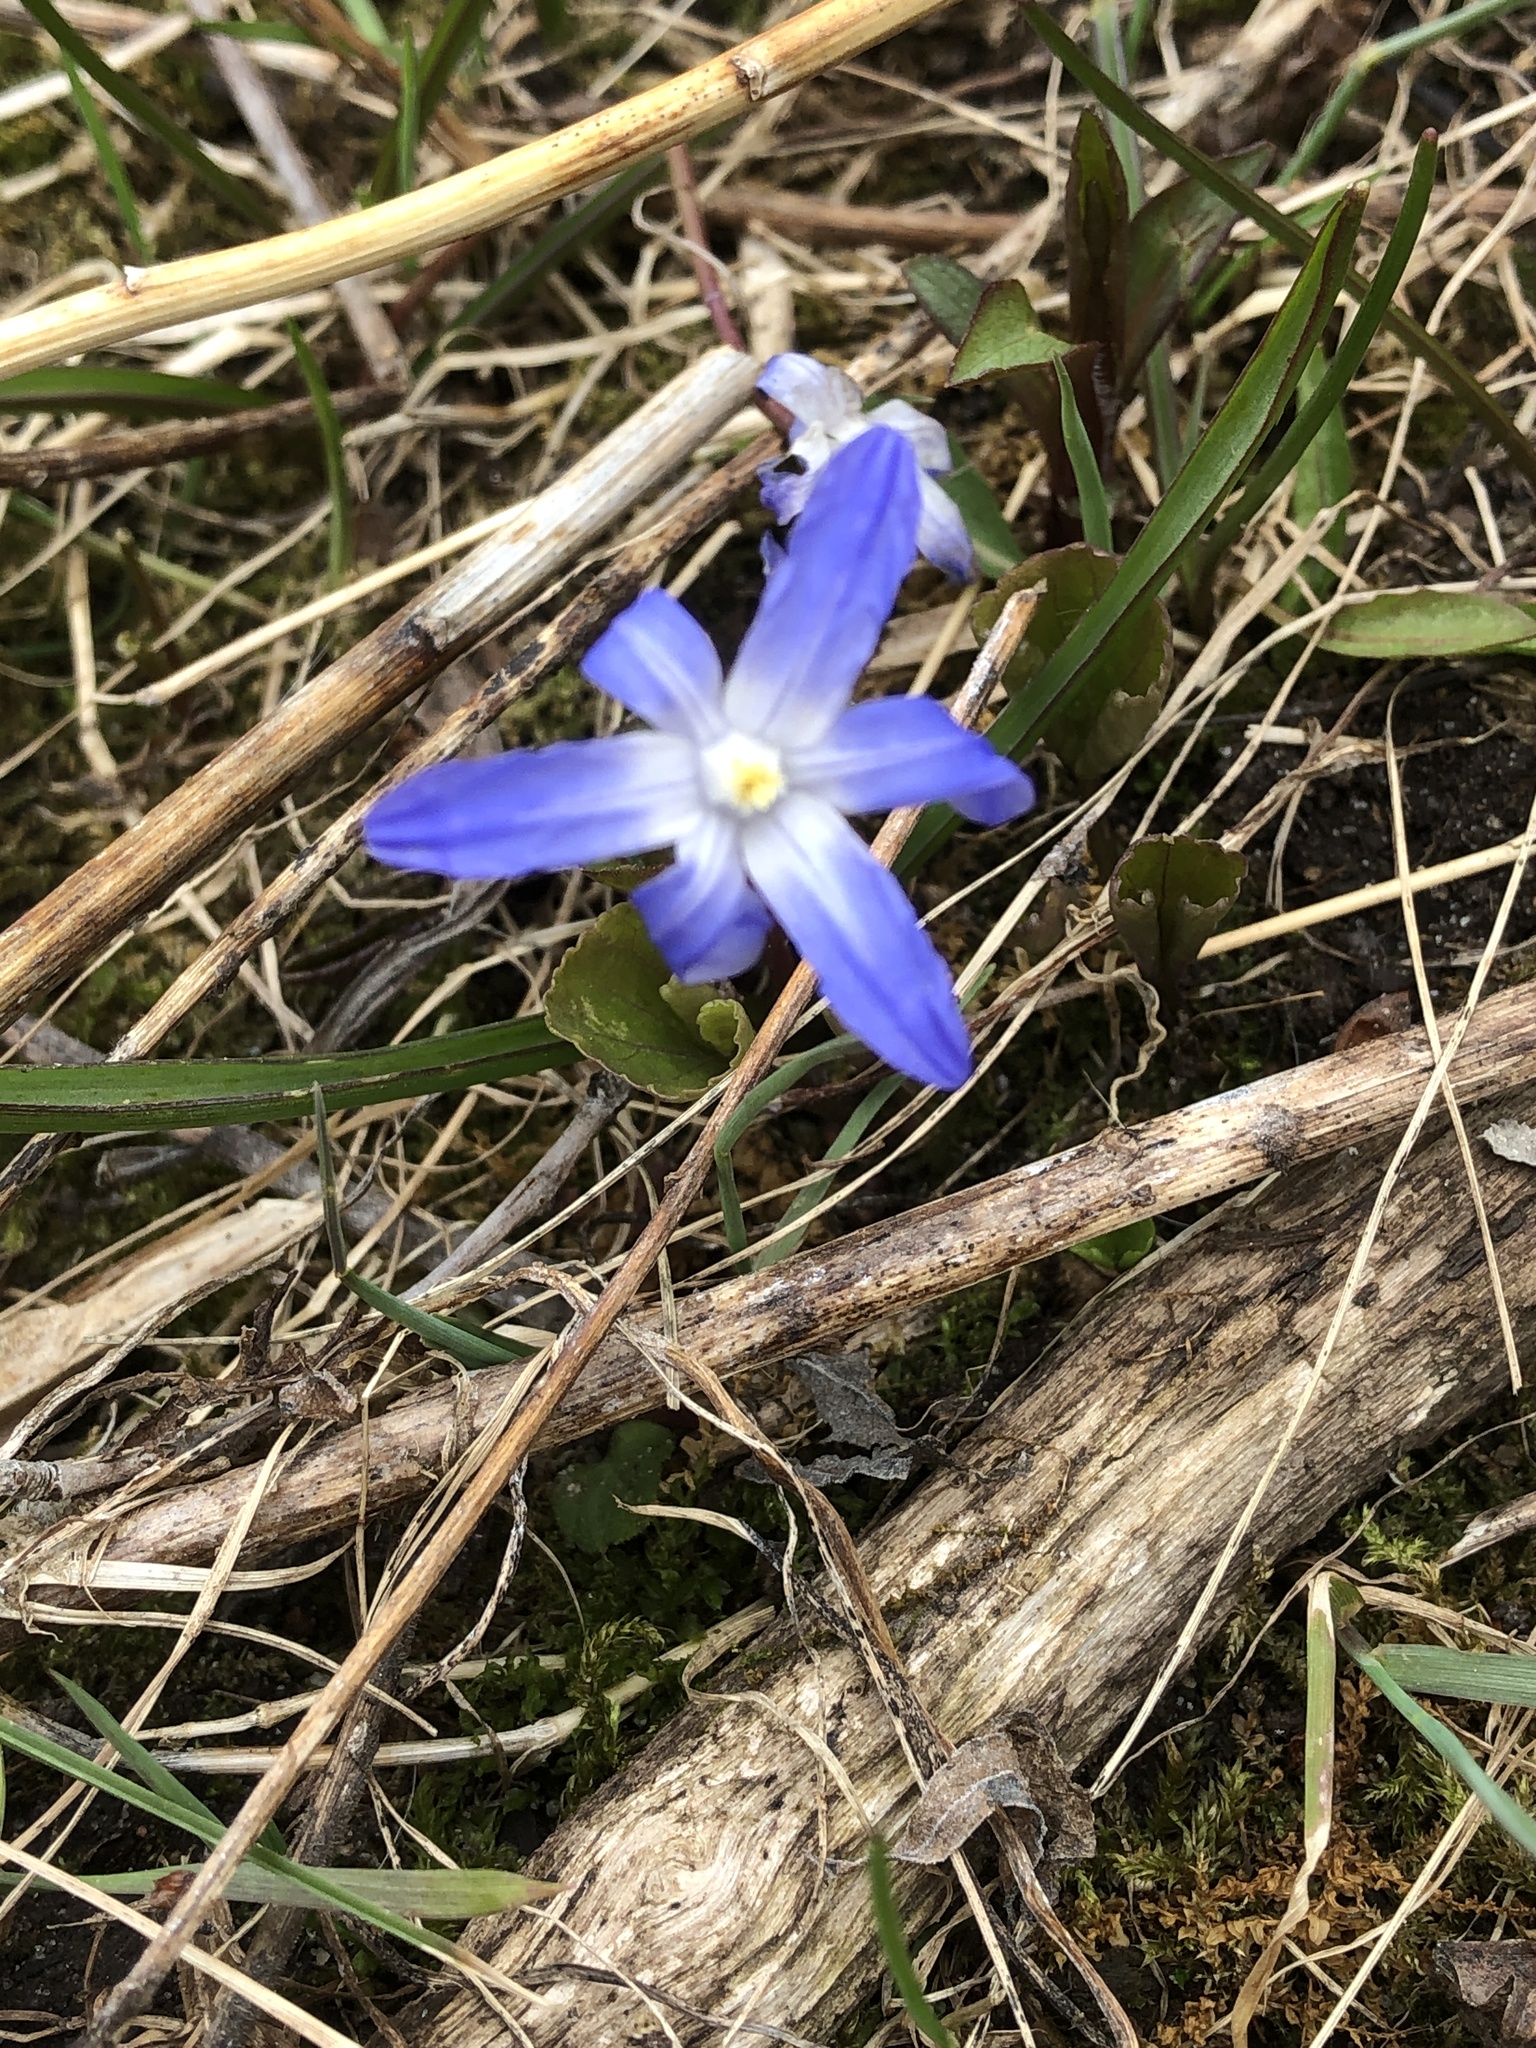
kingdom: Plantae
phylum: Tracheophyta
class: Liliopsida
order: Asparagales
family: Asparagaceae
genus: Scilla
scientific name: Scilla luciliae
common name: Boissier's glory-of-the-snow
